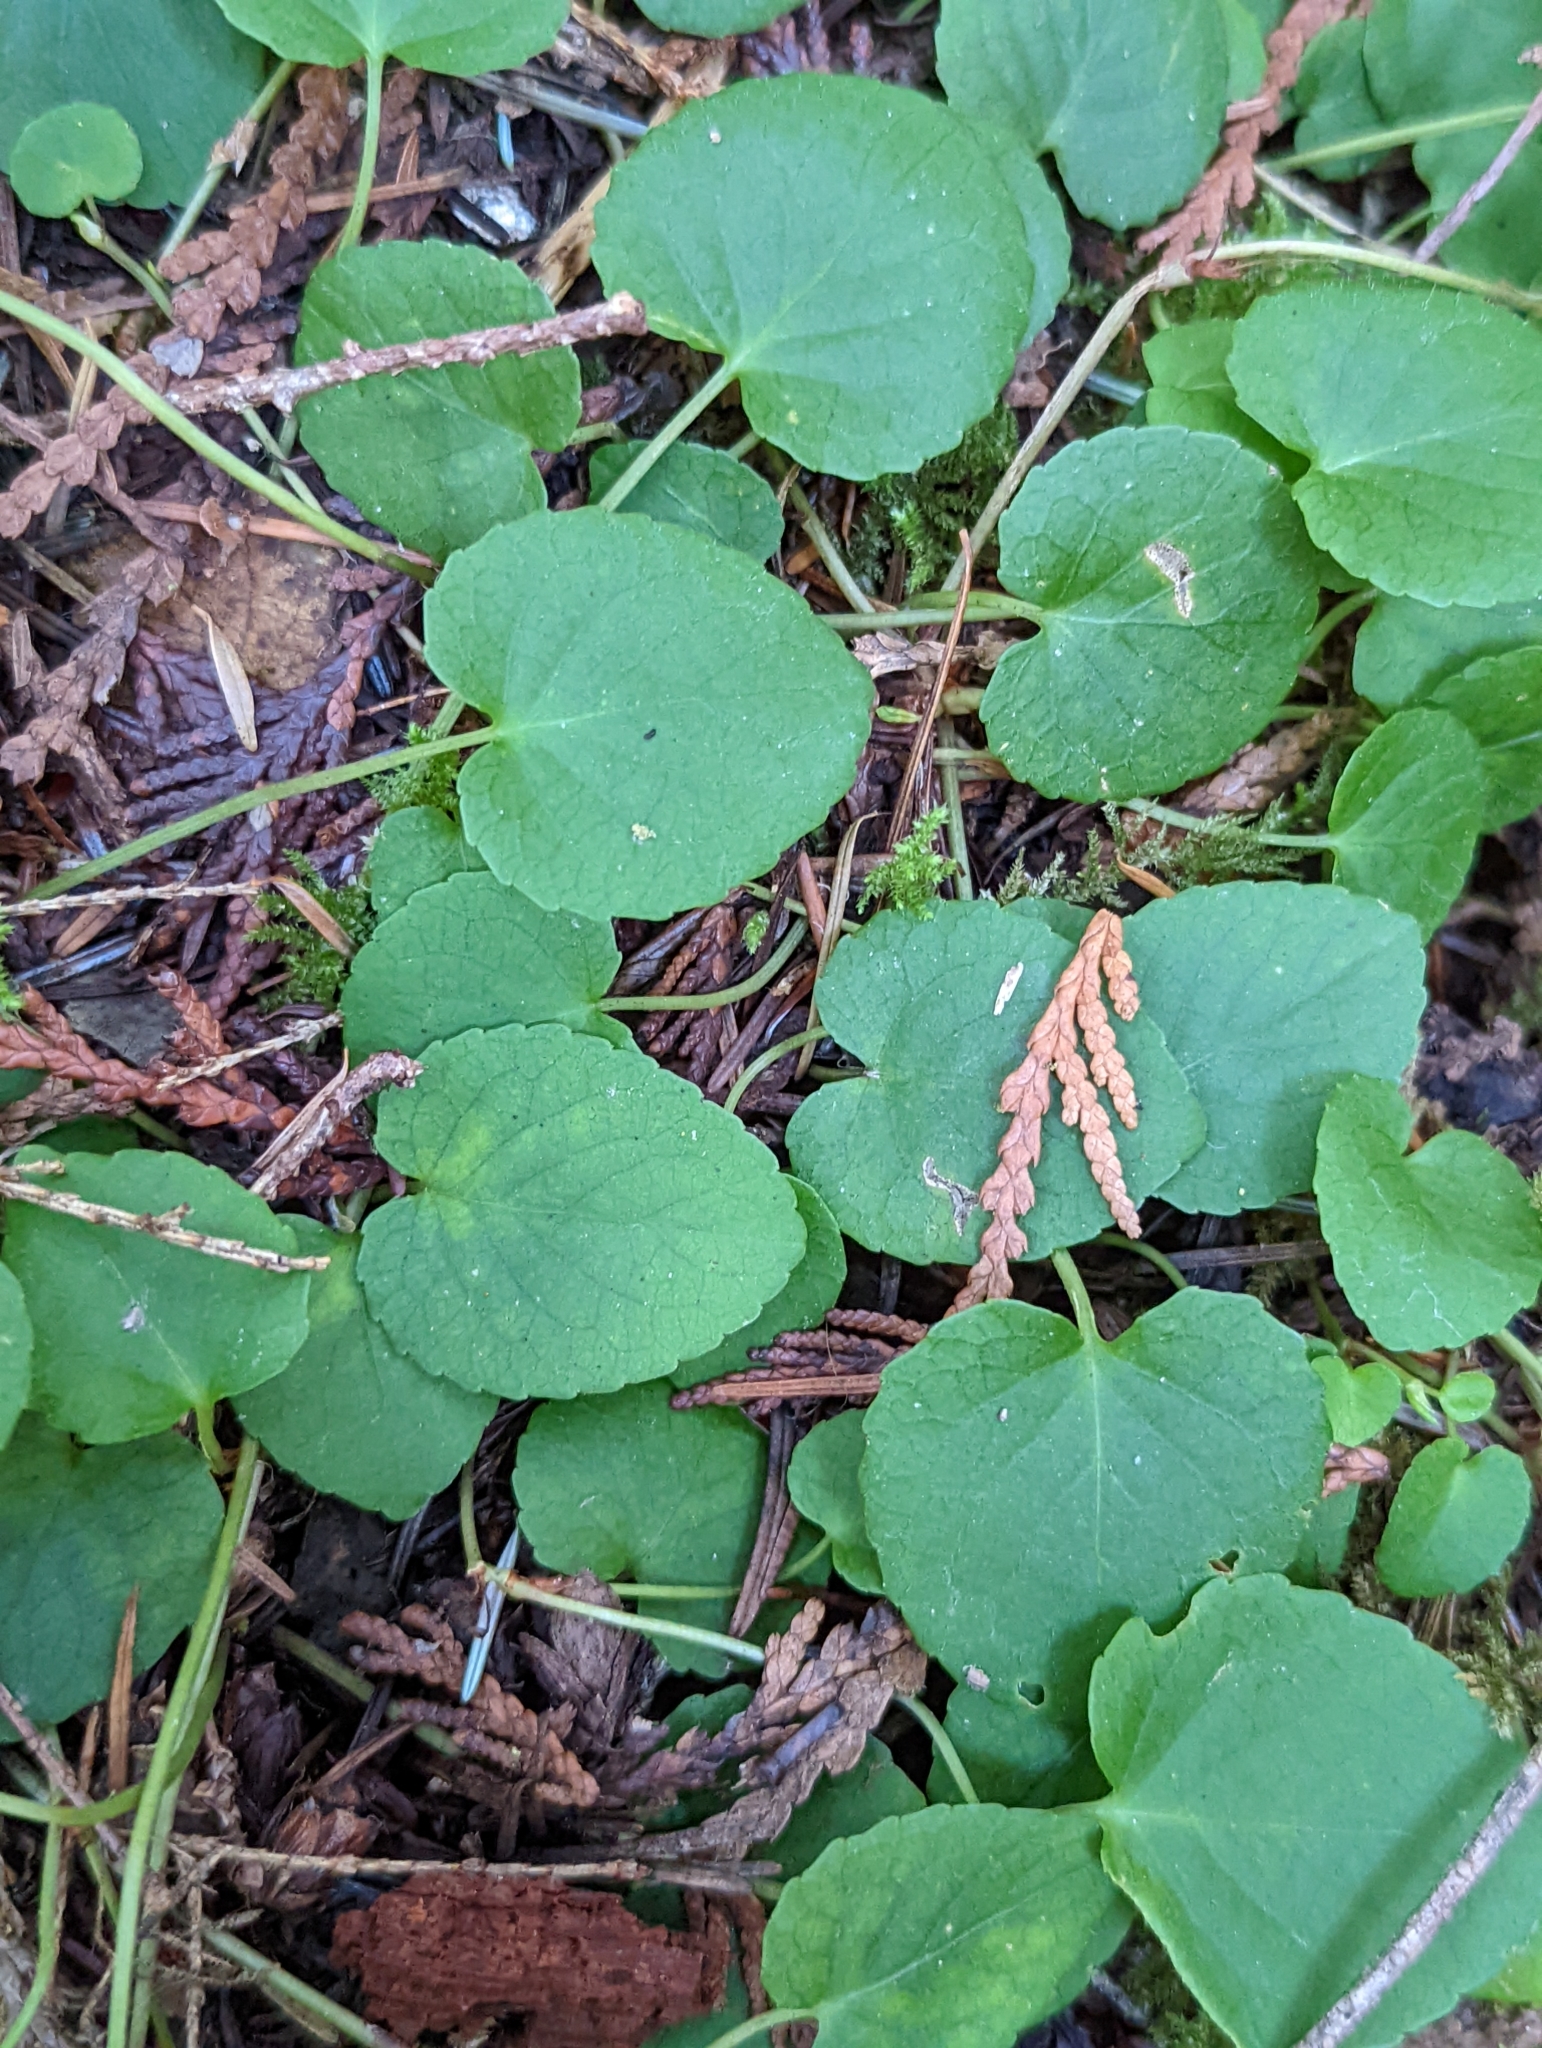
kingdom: Plantae
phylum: Tracheophyta
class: Magnoliopsida
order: Malpighiales
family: Violaceae
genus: Viola
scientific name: Viola sempervirens
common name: Evergreen violet
